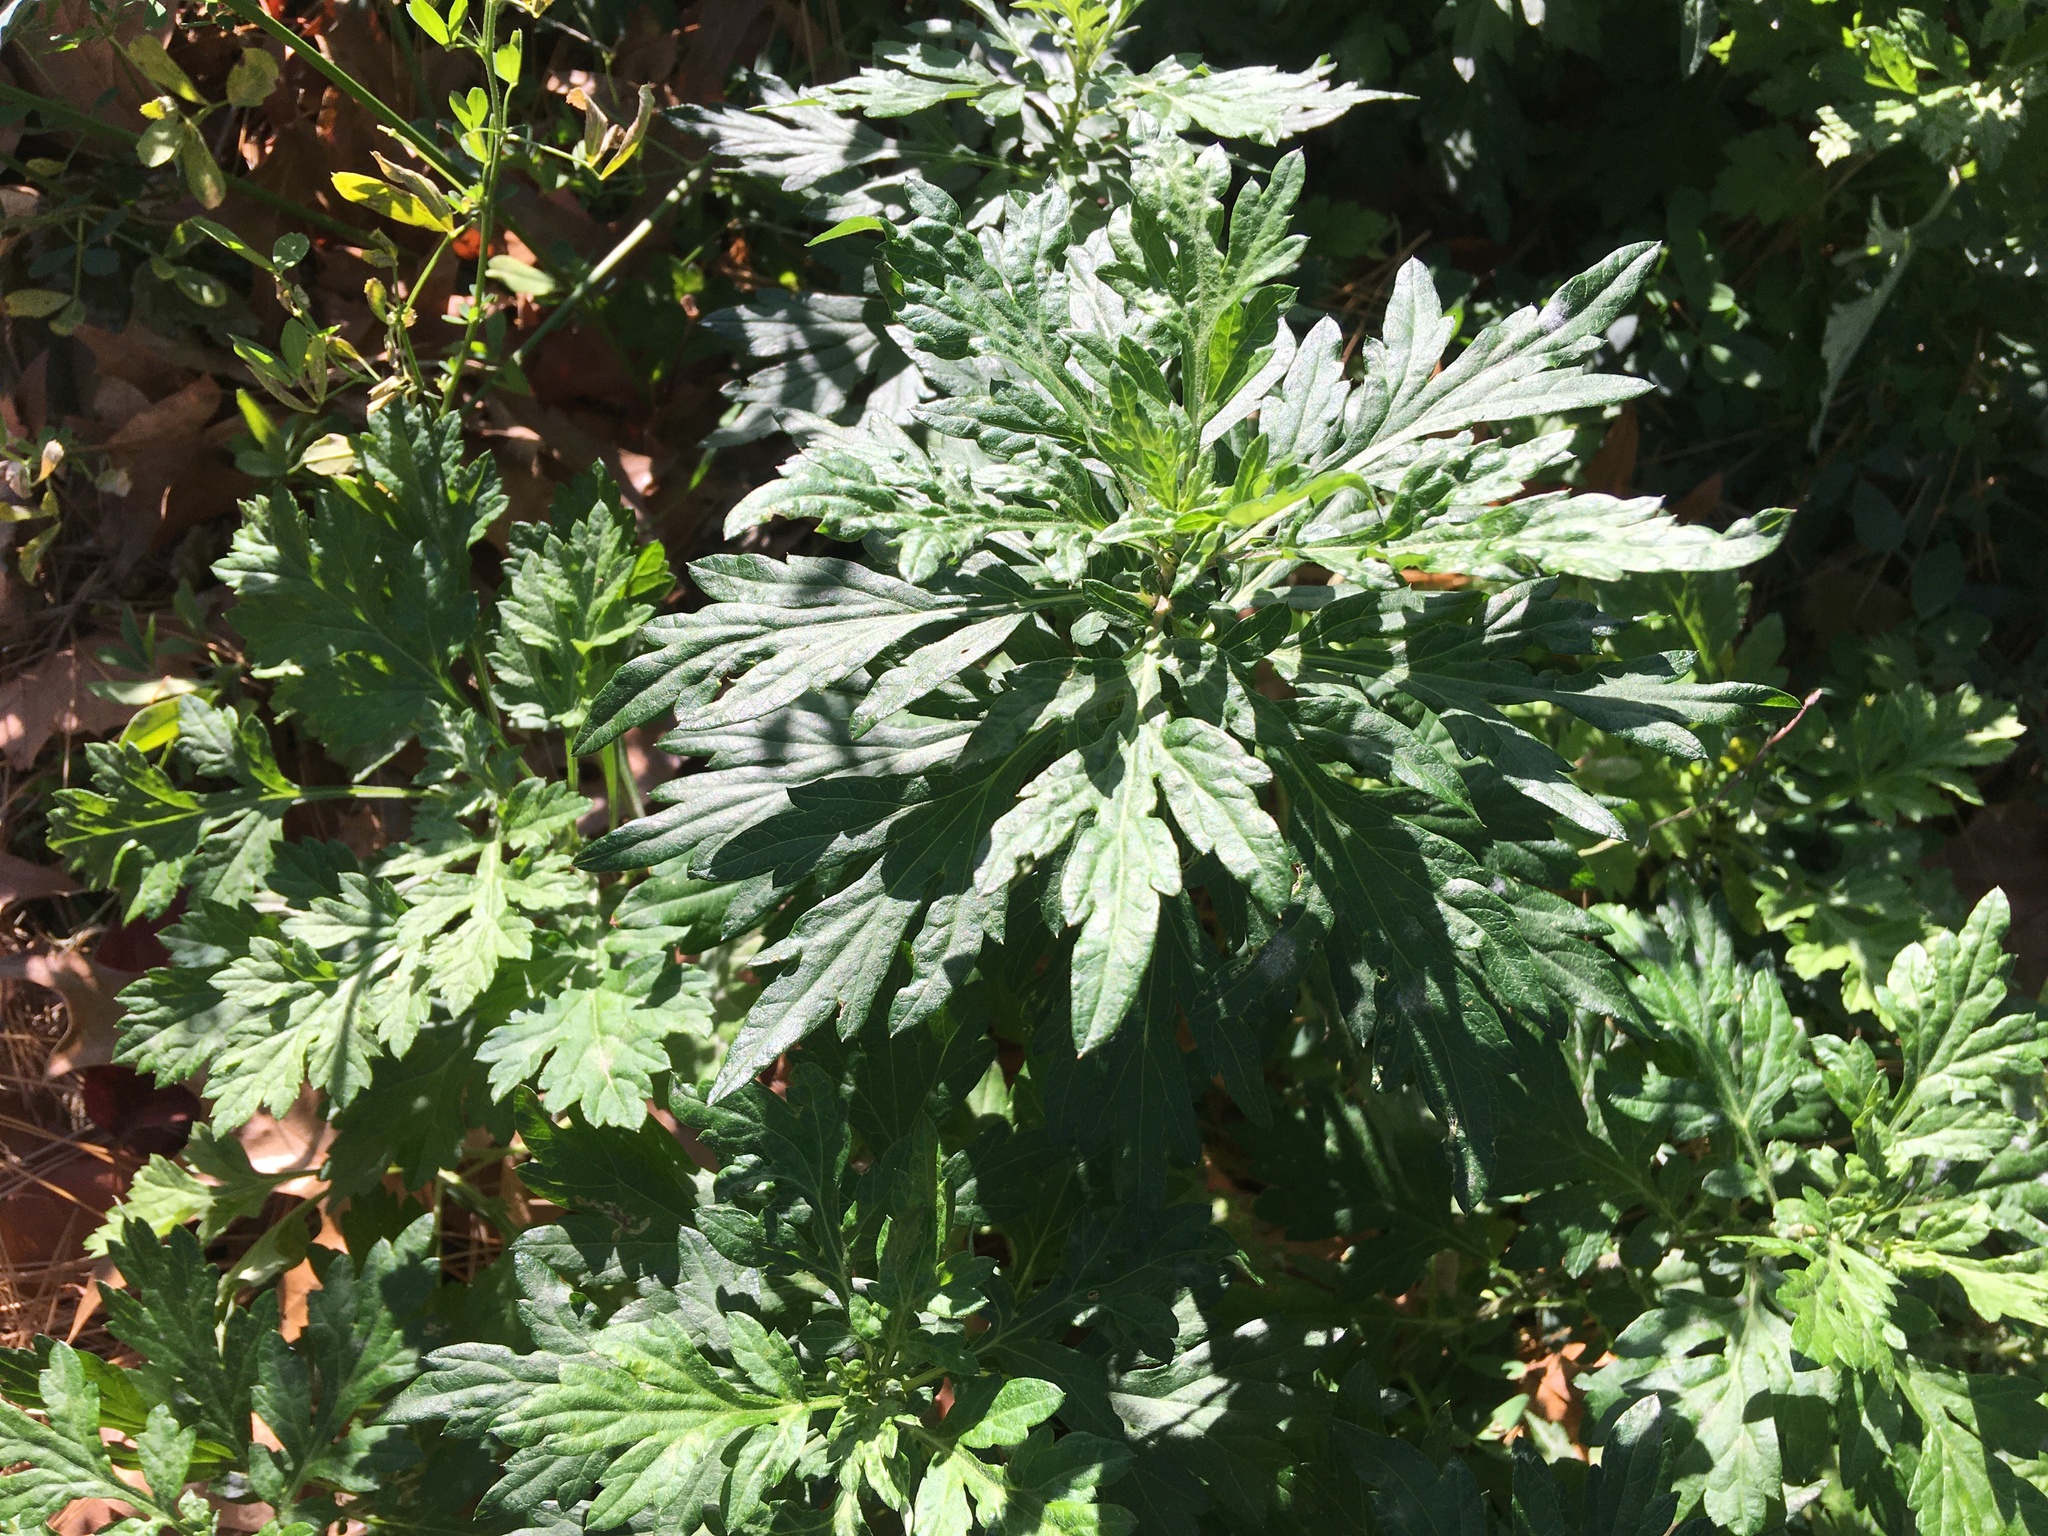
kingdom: Plantae
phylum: Tracheophyta
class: Magnoliopsida
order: Asterales
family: Asteraceae
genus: Artemisia
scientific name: Artemisia vulgaris
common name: Mugwort
